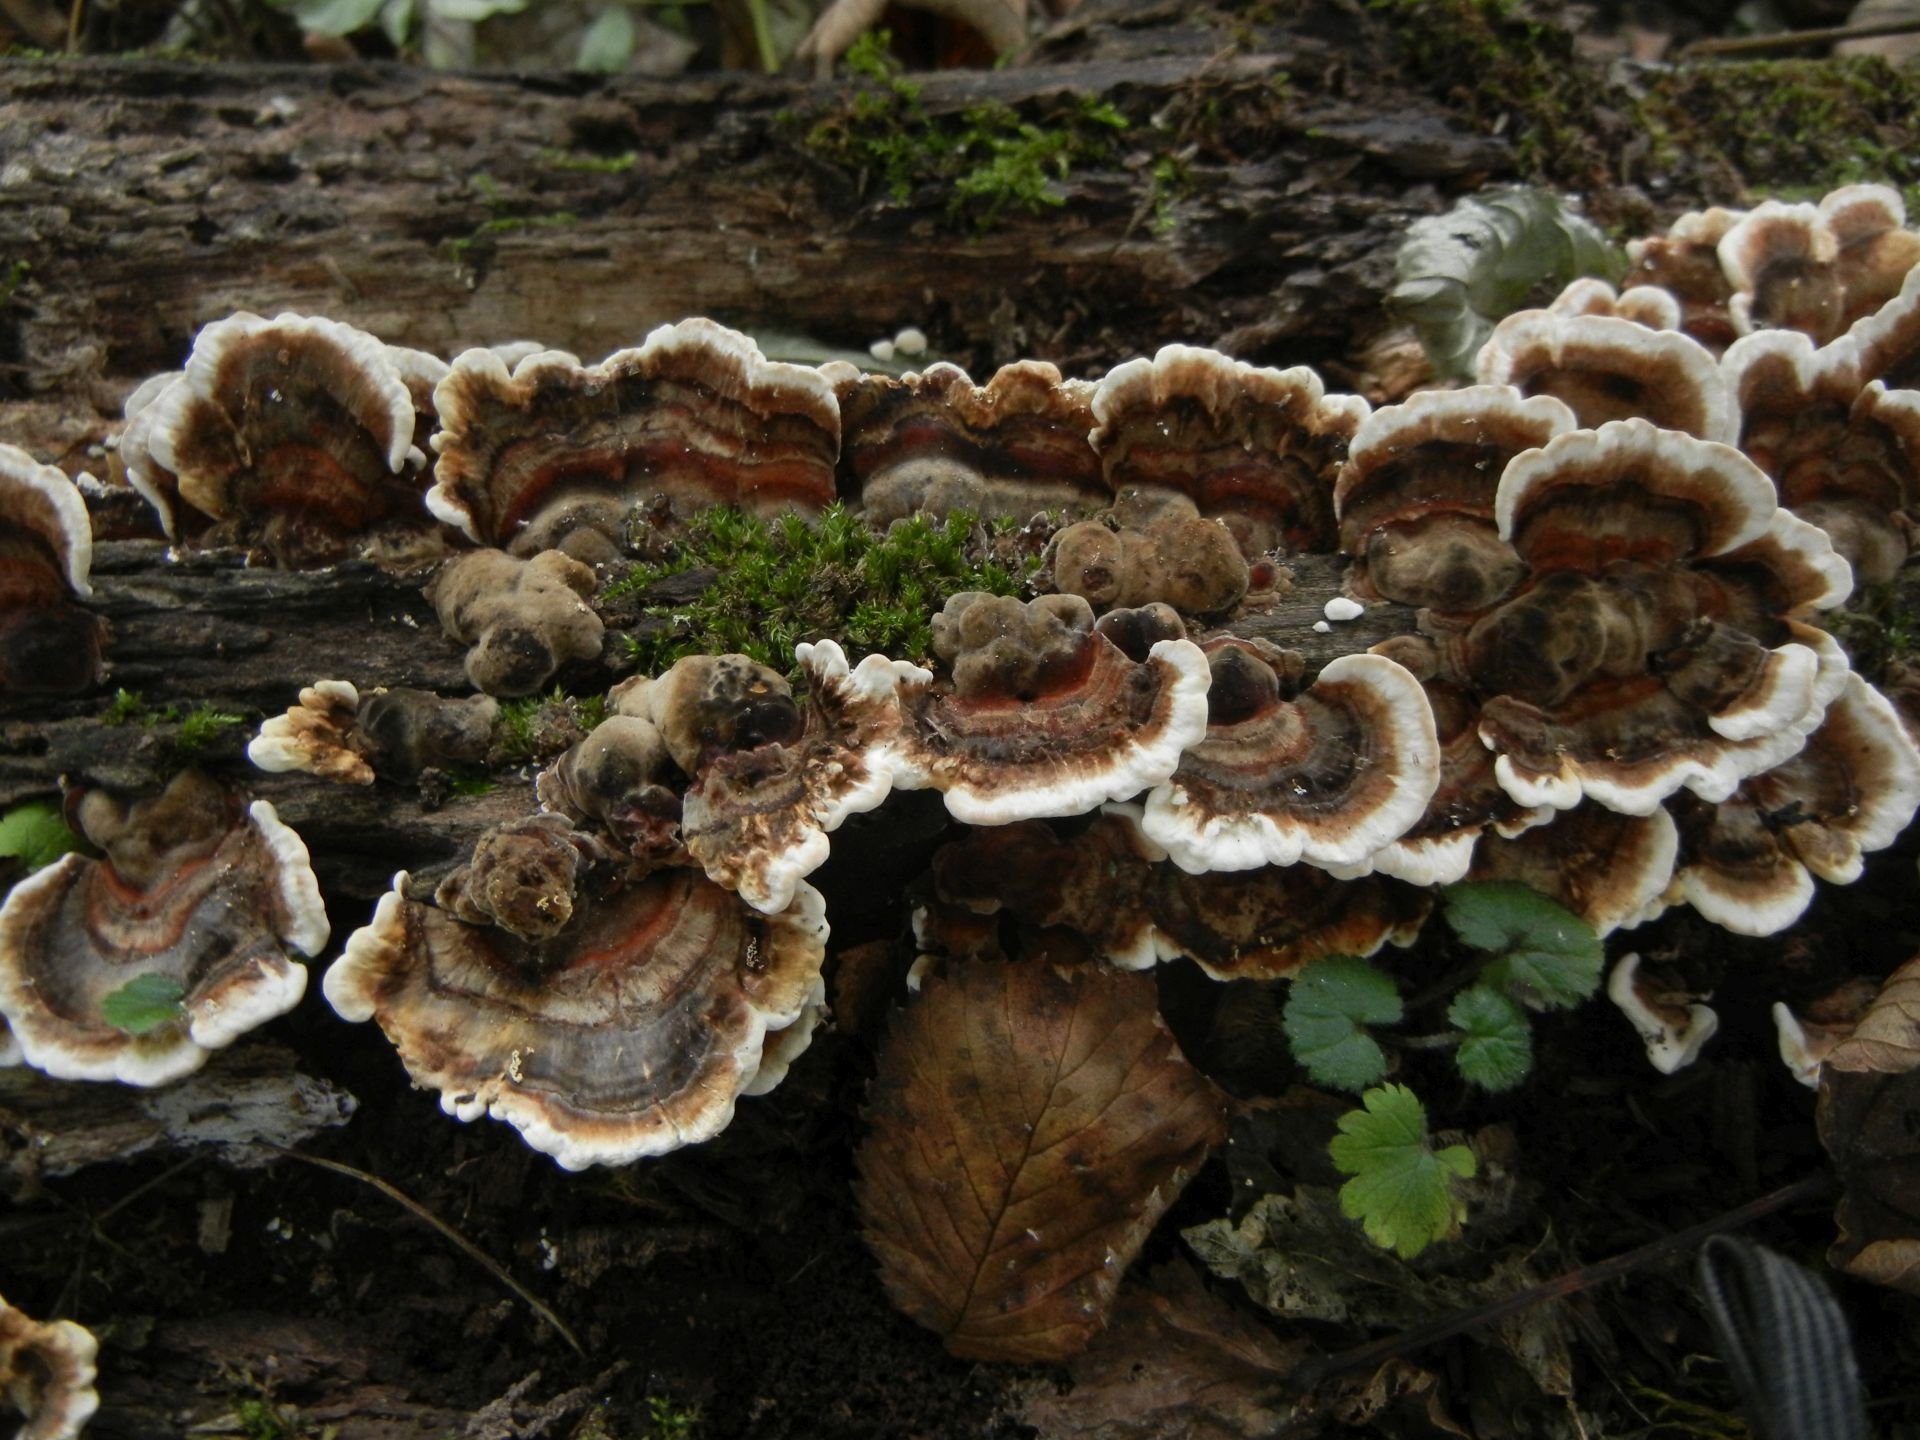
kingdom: Fungi
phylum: Basidiomycota
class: Agaricomycetes
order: Polyporales
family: Polyporaceae
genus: Trametes
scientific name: Trametes versicolor
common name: Turkeytail
